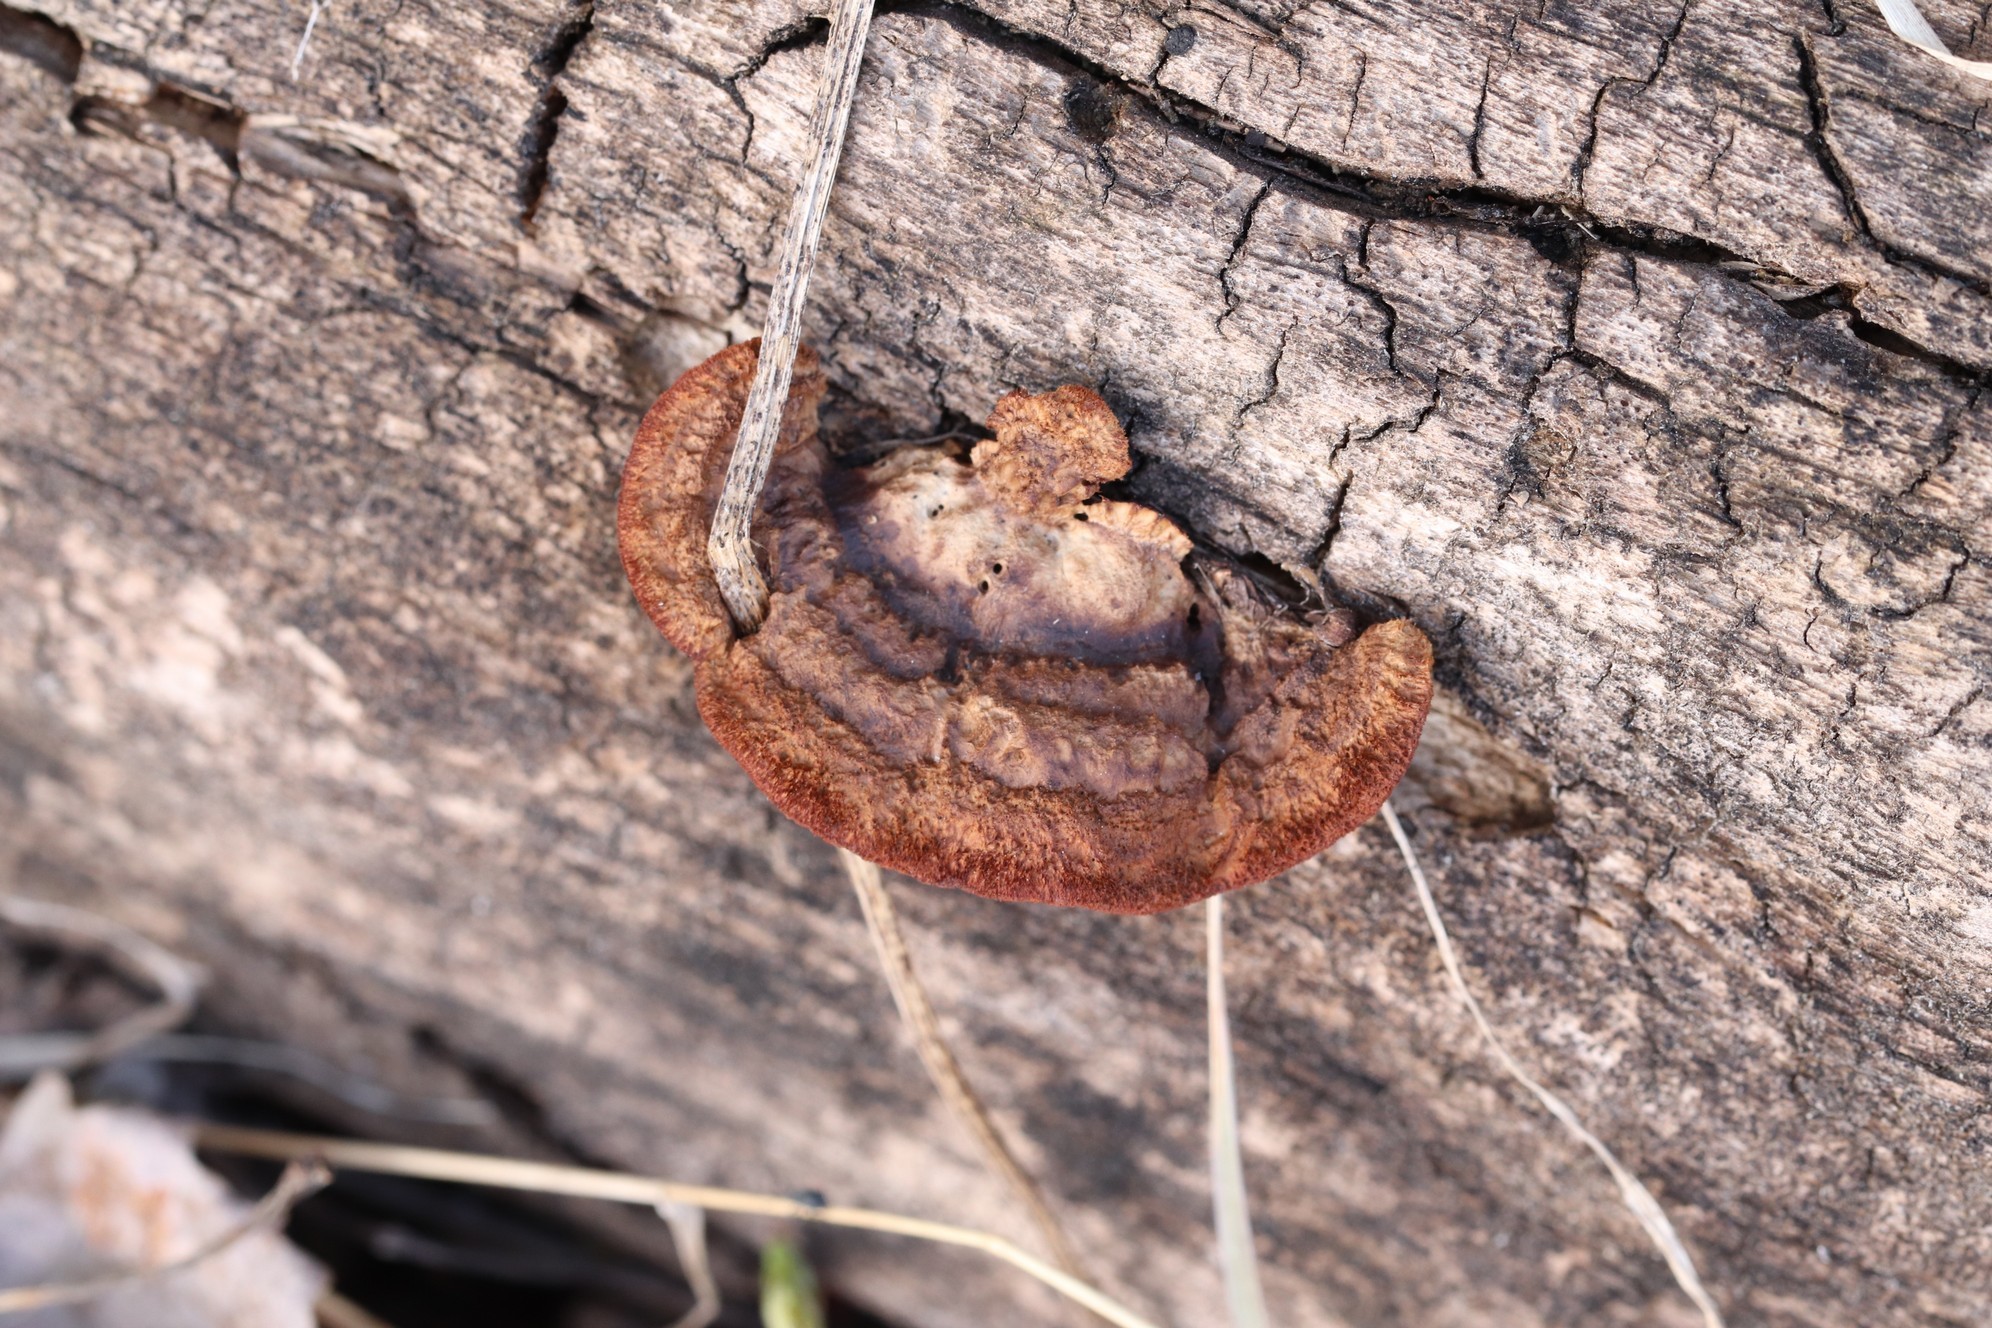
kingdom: Fungi
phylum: Basidiomycota
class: Agaricomycetes
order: Gloeophyllales
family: Gloeophyllaceae
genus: Gloeophyllum
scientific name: Gloeophyllum sepiarium
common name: Conifer mazegill
